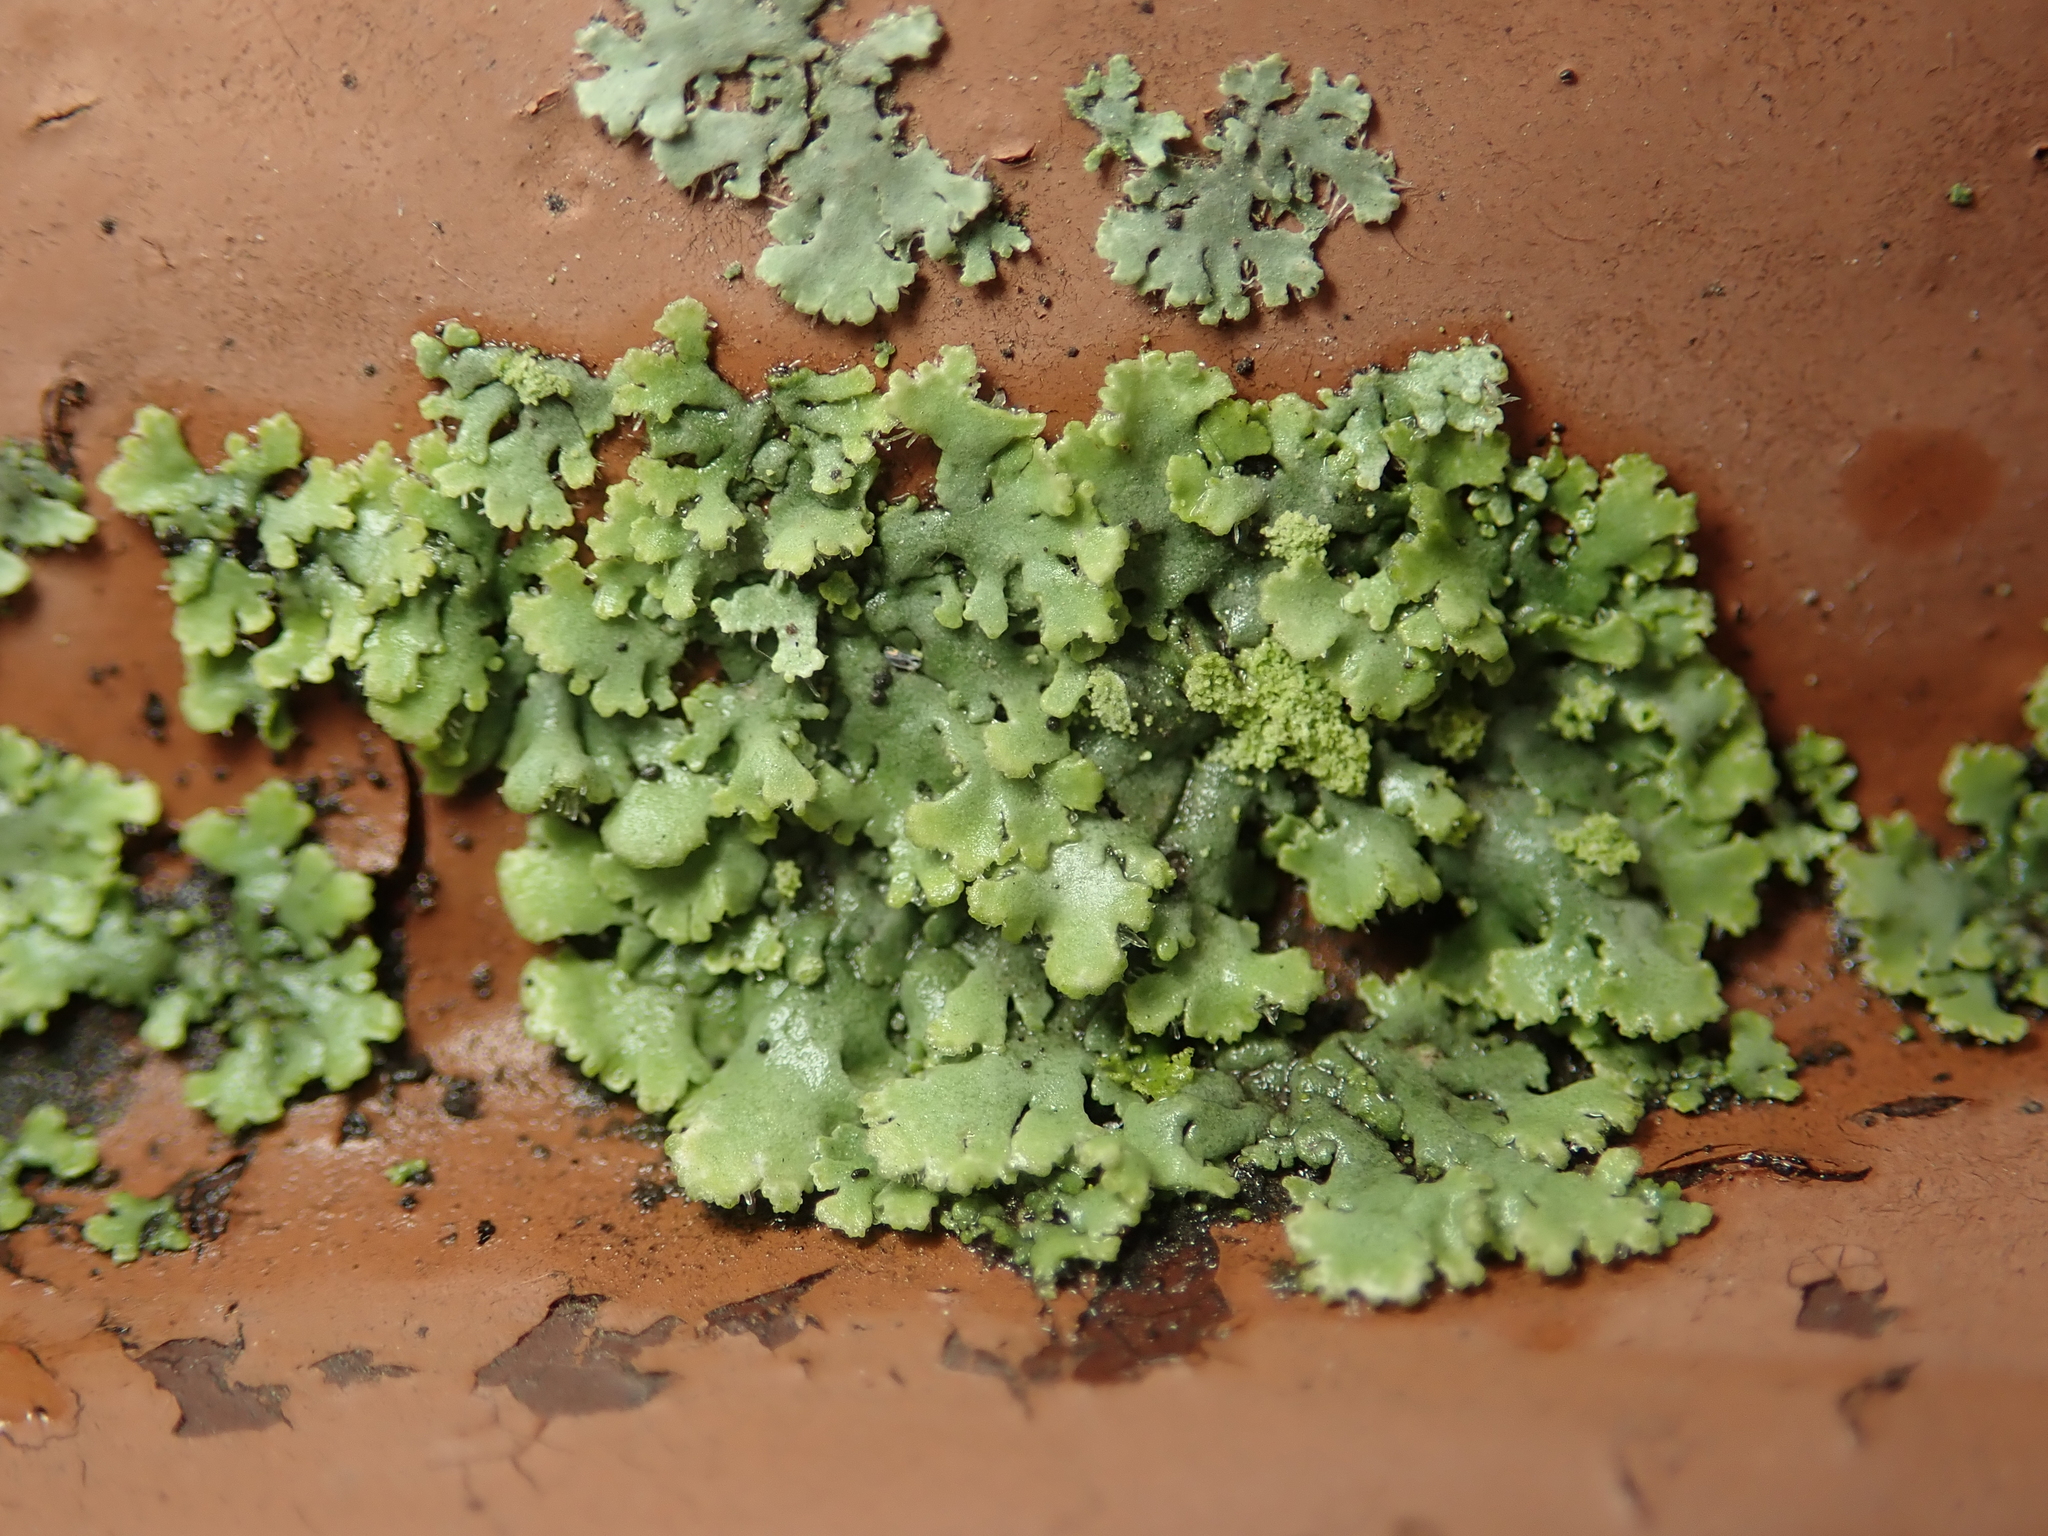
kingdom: Fungi
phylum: Ascomycota
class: Lecanoromycetes
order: Caliciales
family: Physciaceae
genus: Phaeophyscia
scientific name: Phaeophyscia orbicularis
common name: Mealy shadow lichen
